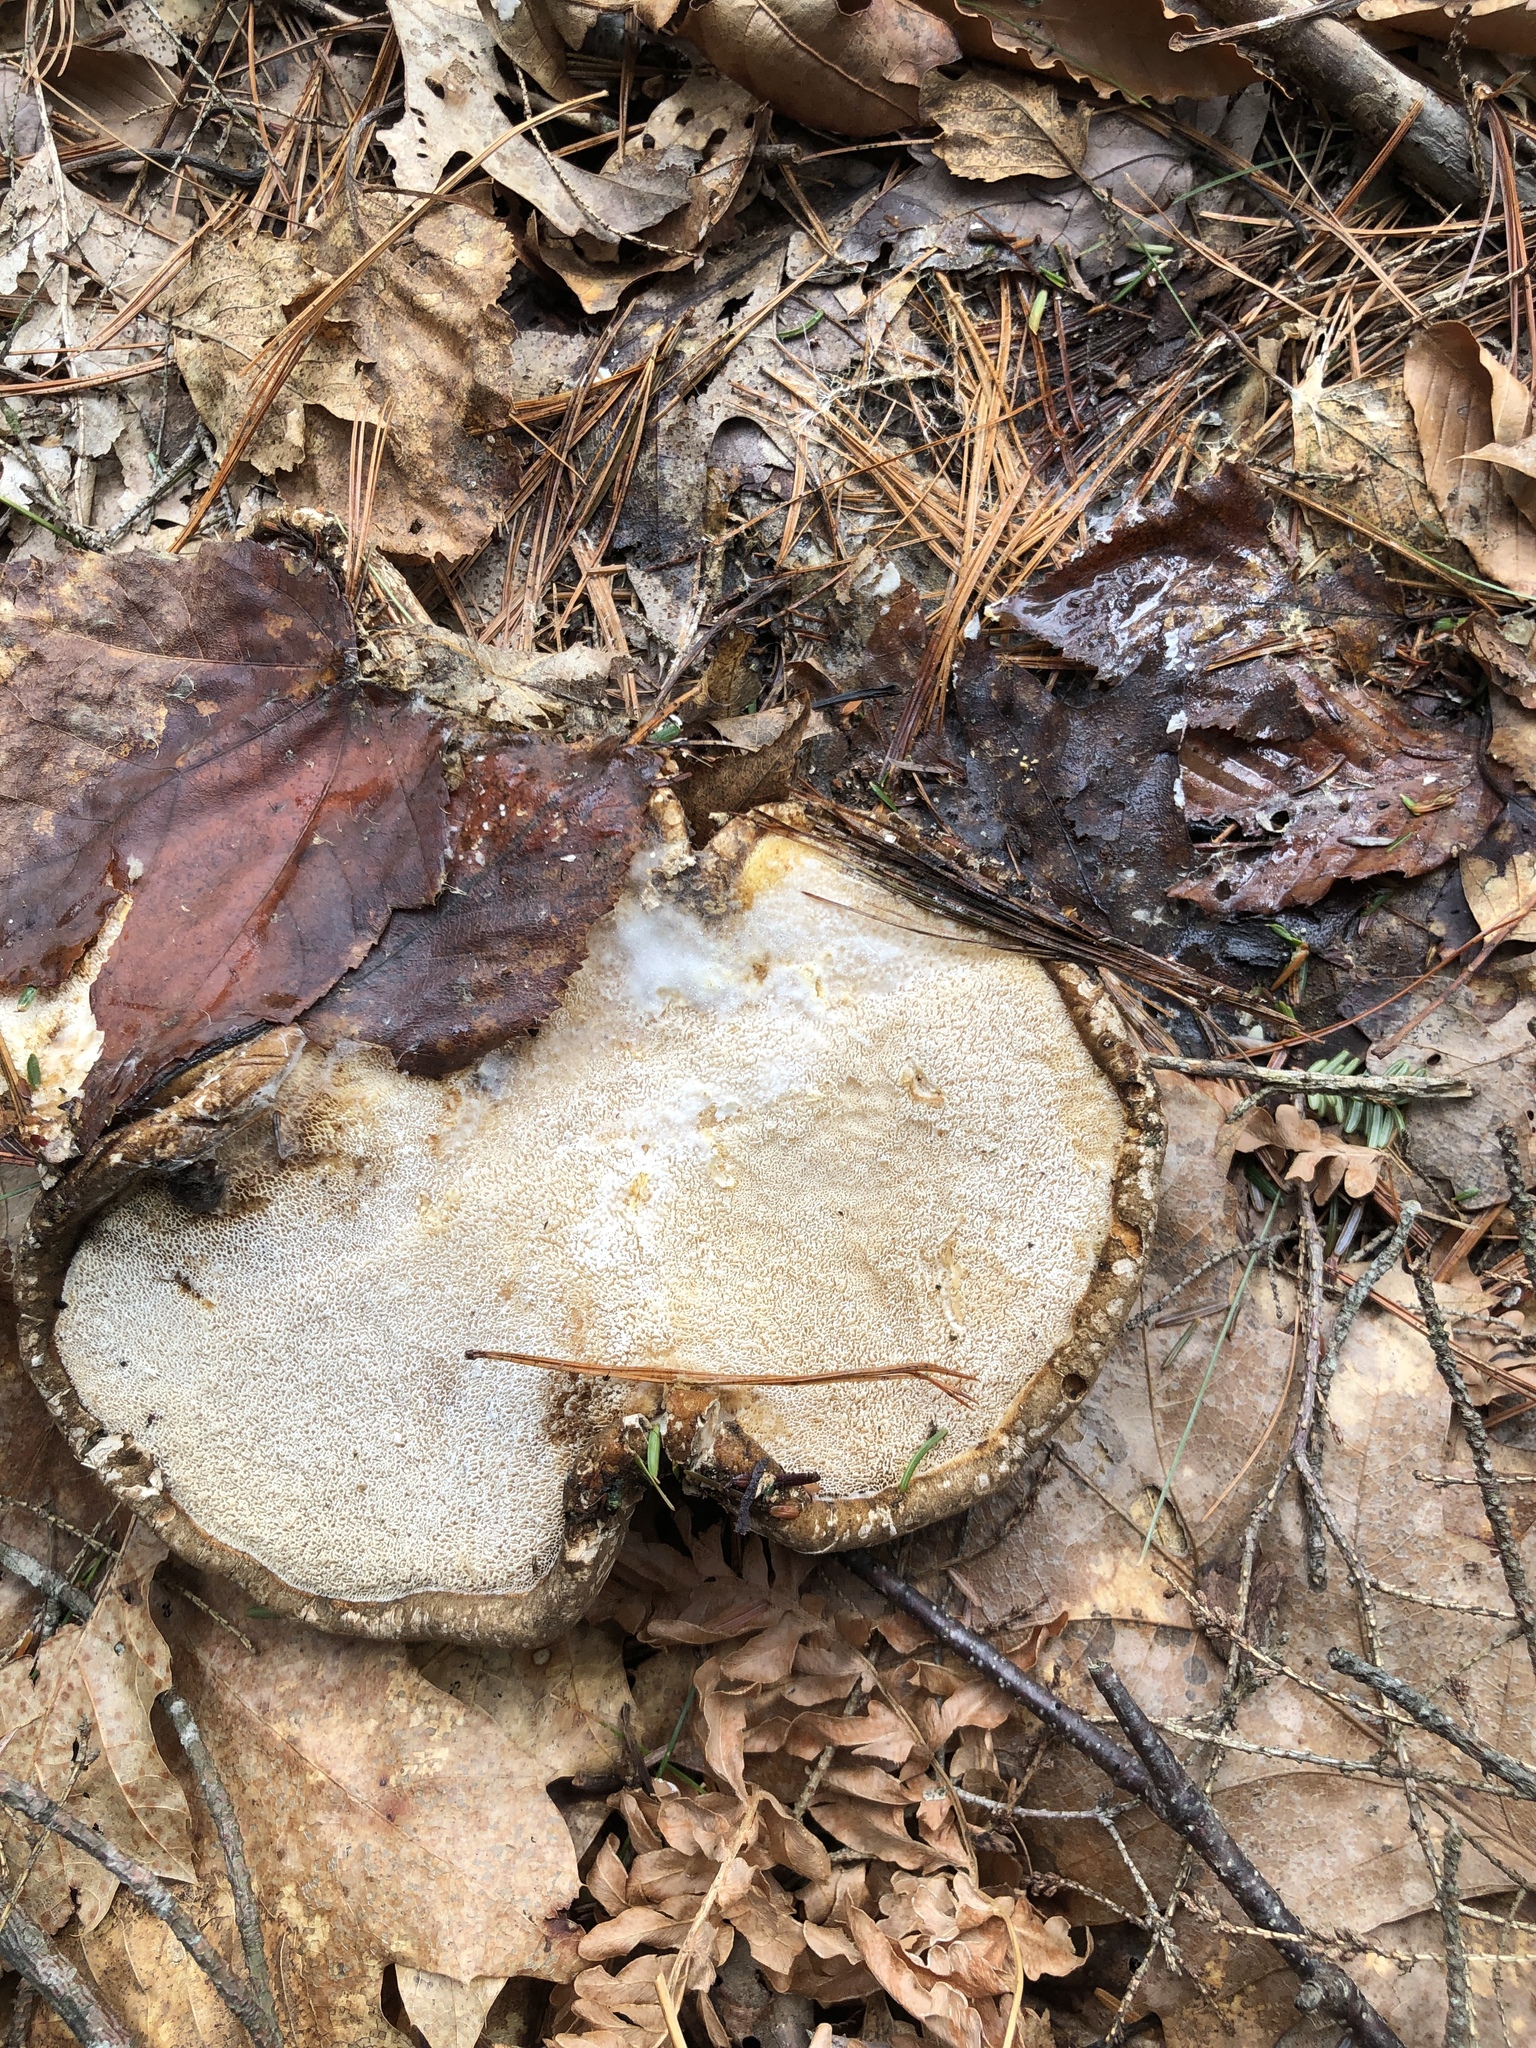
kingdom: Fungi
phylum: Basidiomycota
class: Agaricomycetes
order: Polyporales
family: Fomitopsidaceae
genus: Fomitopsis
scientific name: Fomitopsis betulina
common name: Birch polypore
